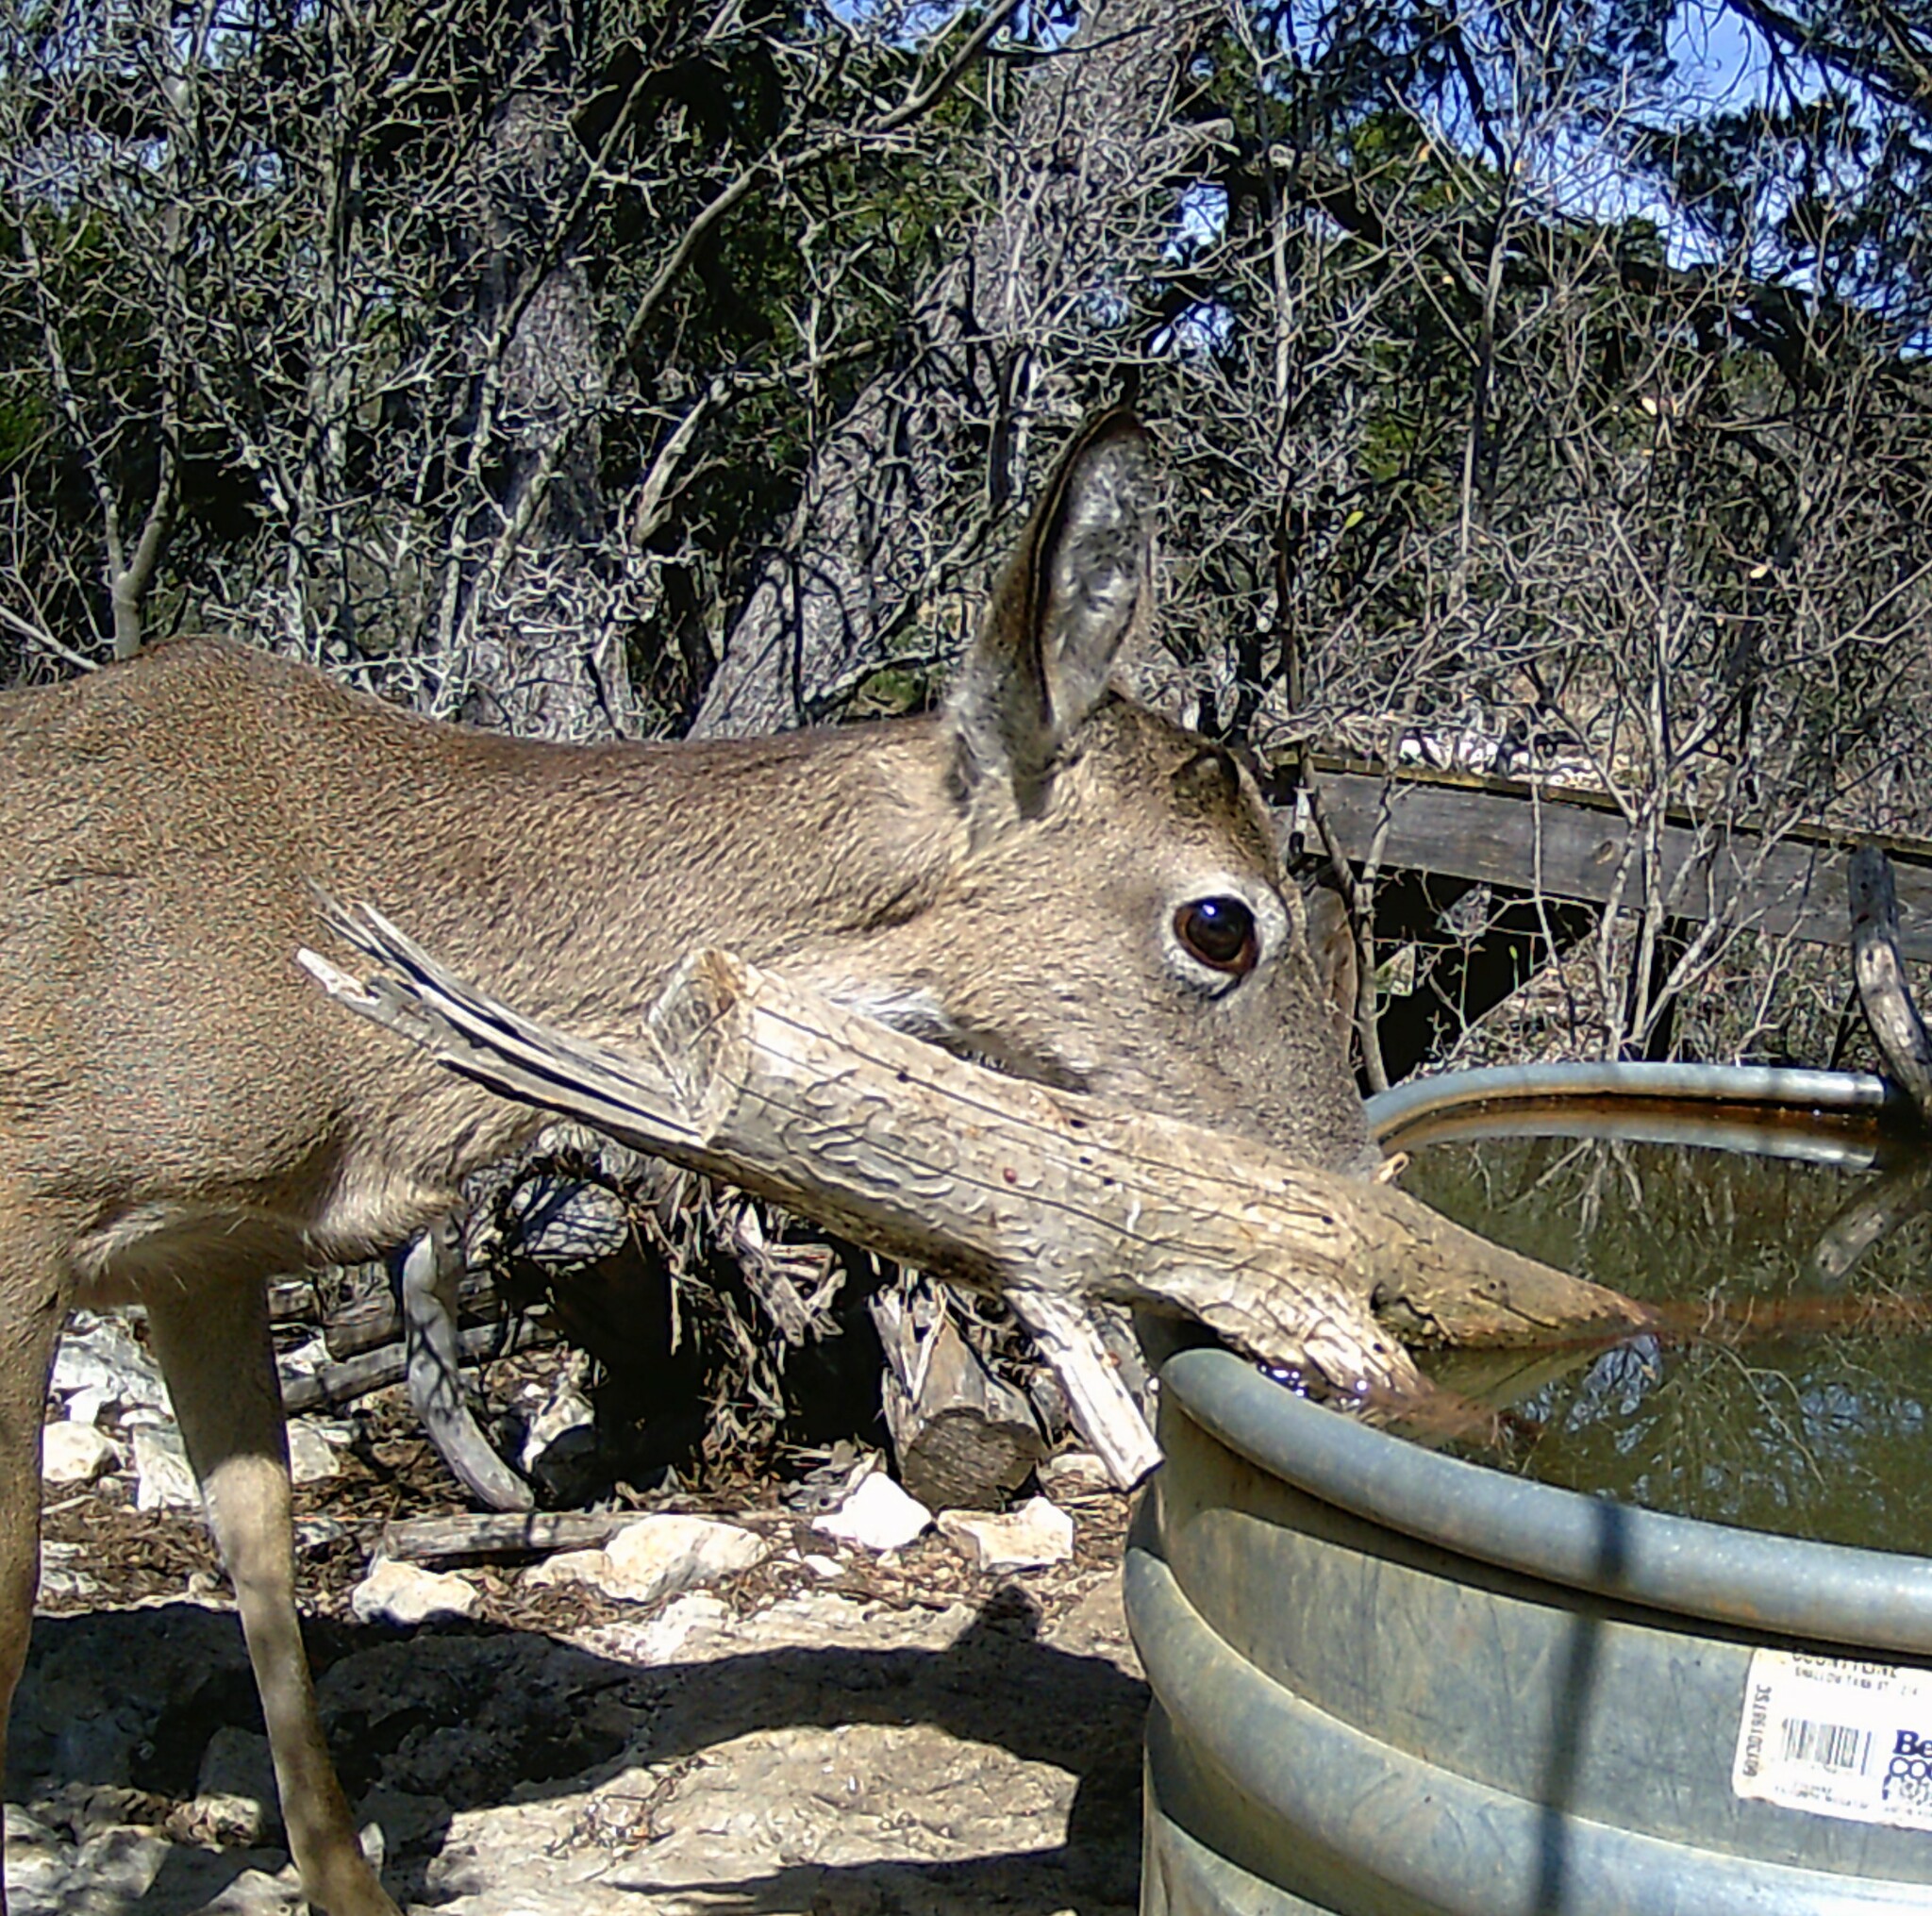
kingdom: Animalia
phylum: Chordata
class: Mammalia
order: Artiodactyla
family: Cervidae
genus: Odocoileus
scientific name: Odocoileus virginianus
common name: White-tailed deer
